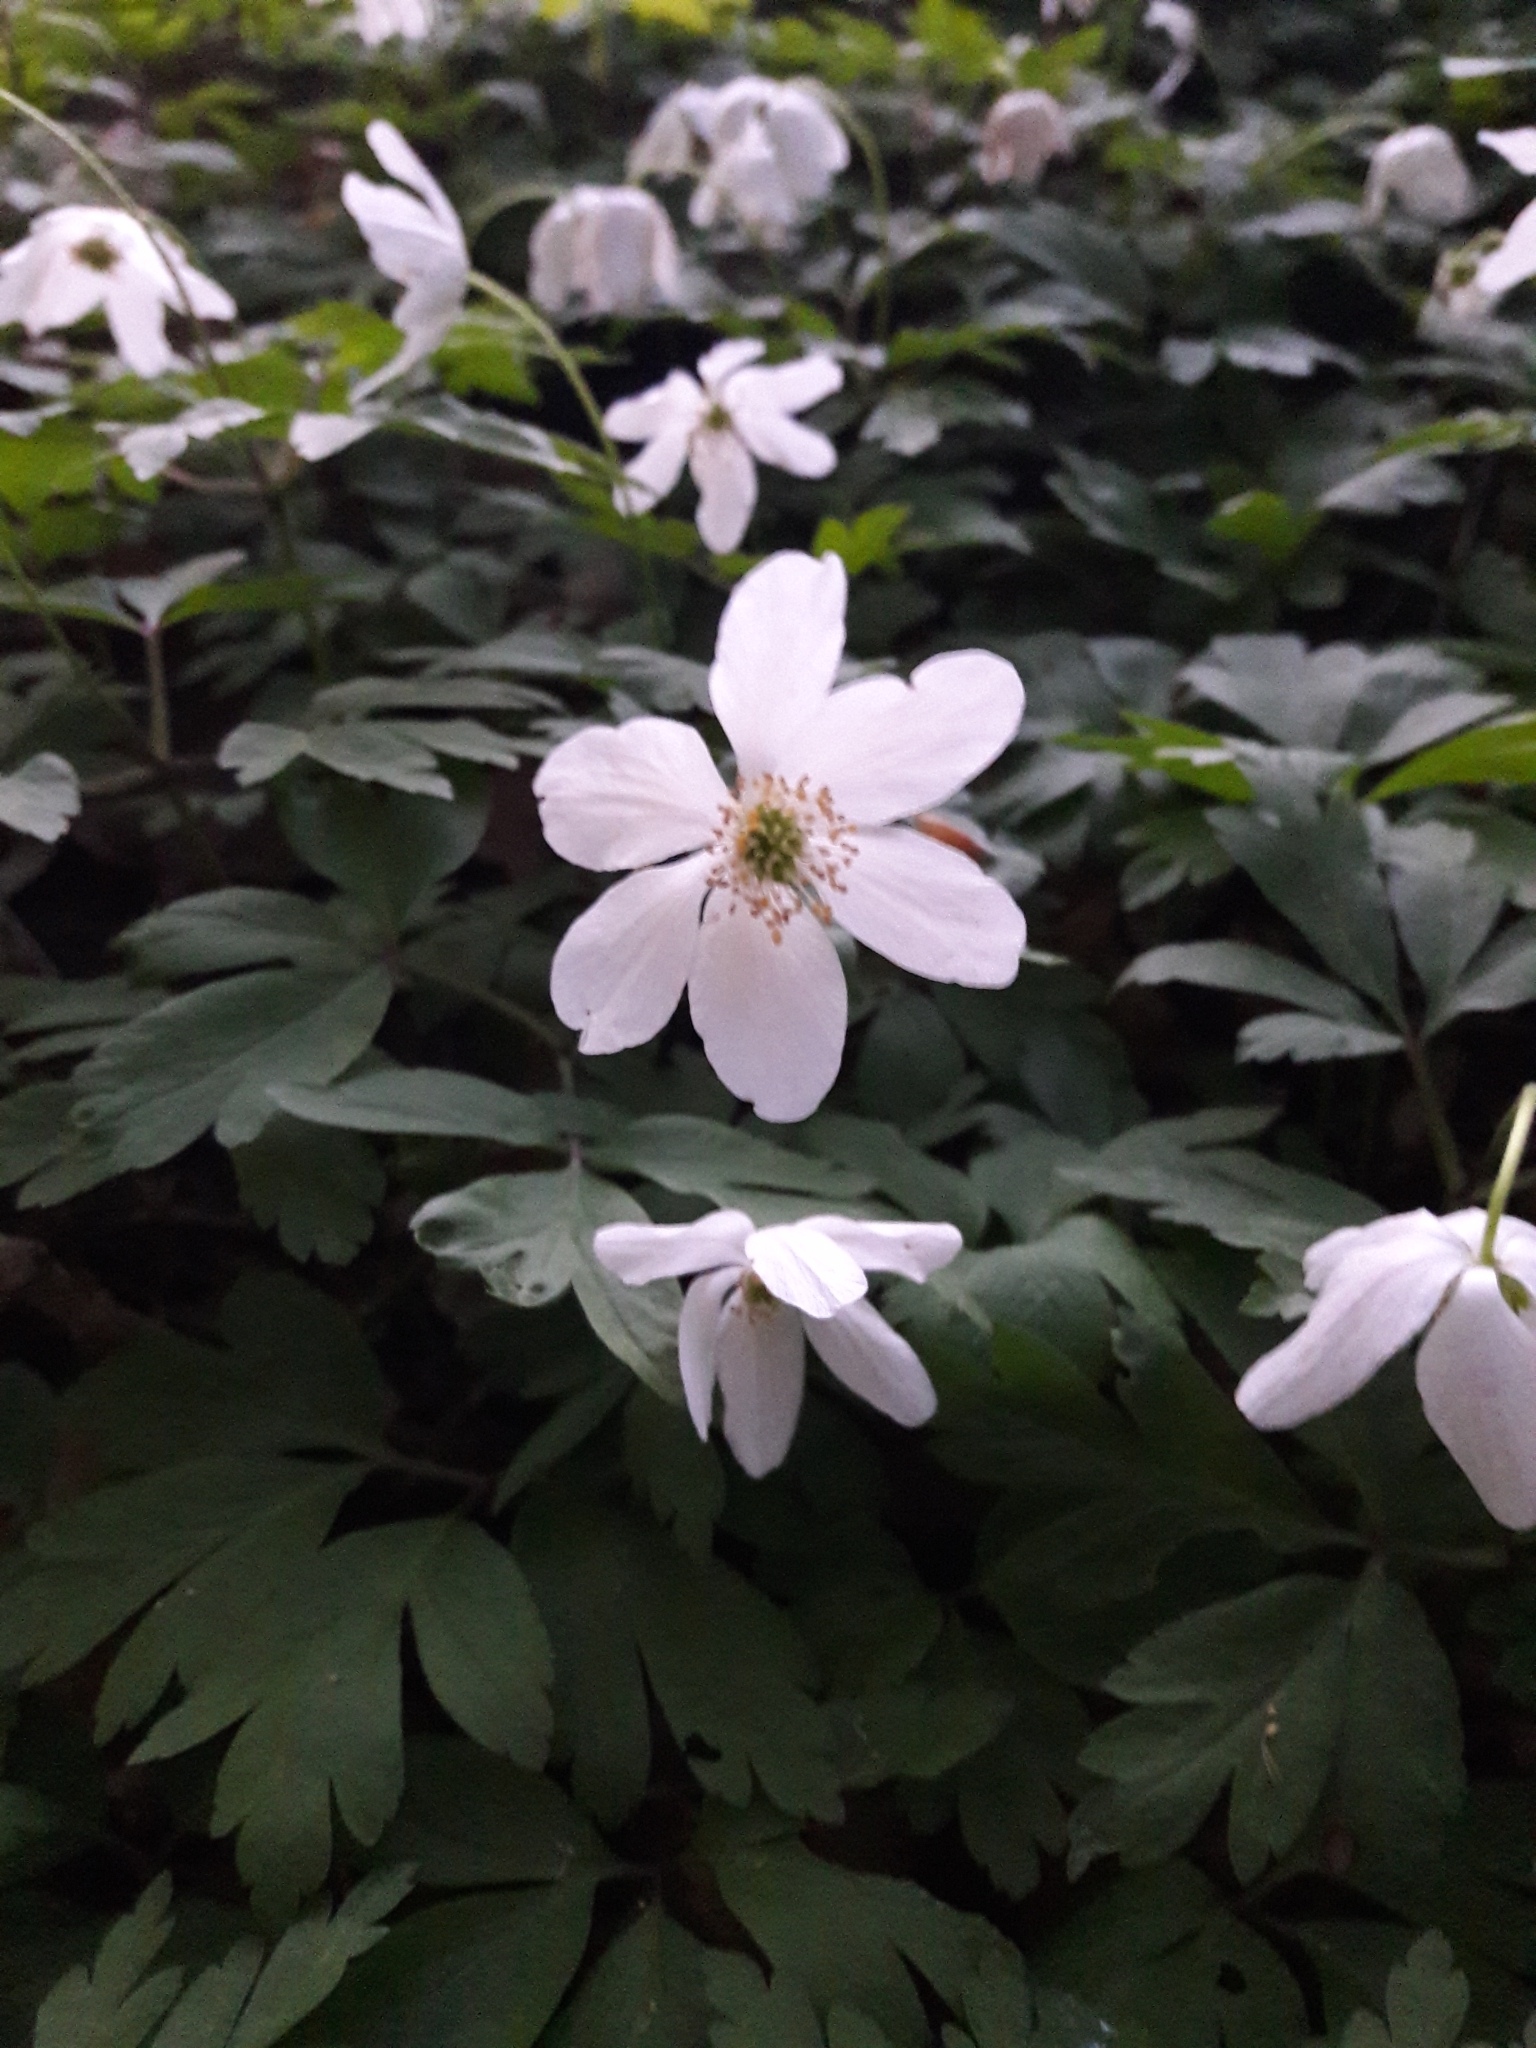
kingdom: Plantae
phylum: Tracheophyta
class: Magnoliopsida
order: Ranunculales
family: Ranunculaceae
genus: Anemone
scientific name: Anemone nemorosa
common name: Wood anemone
